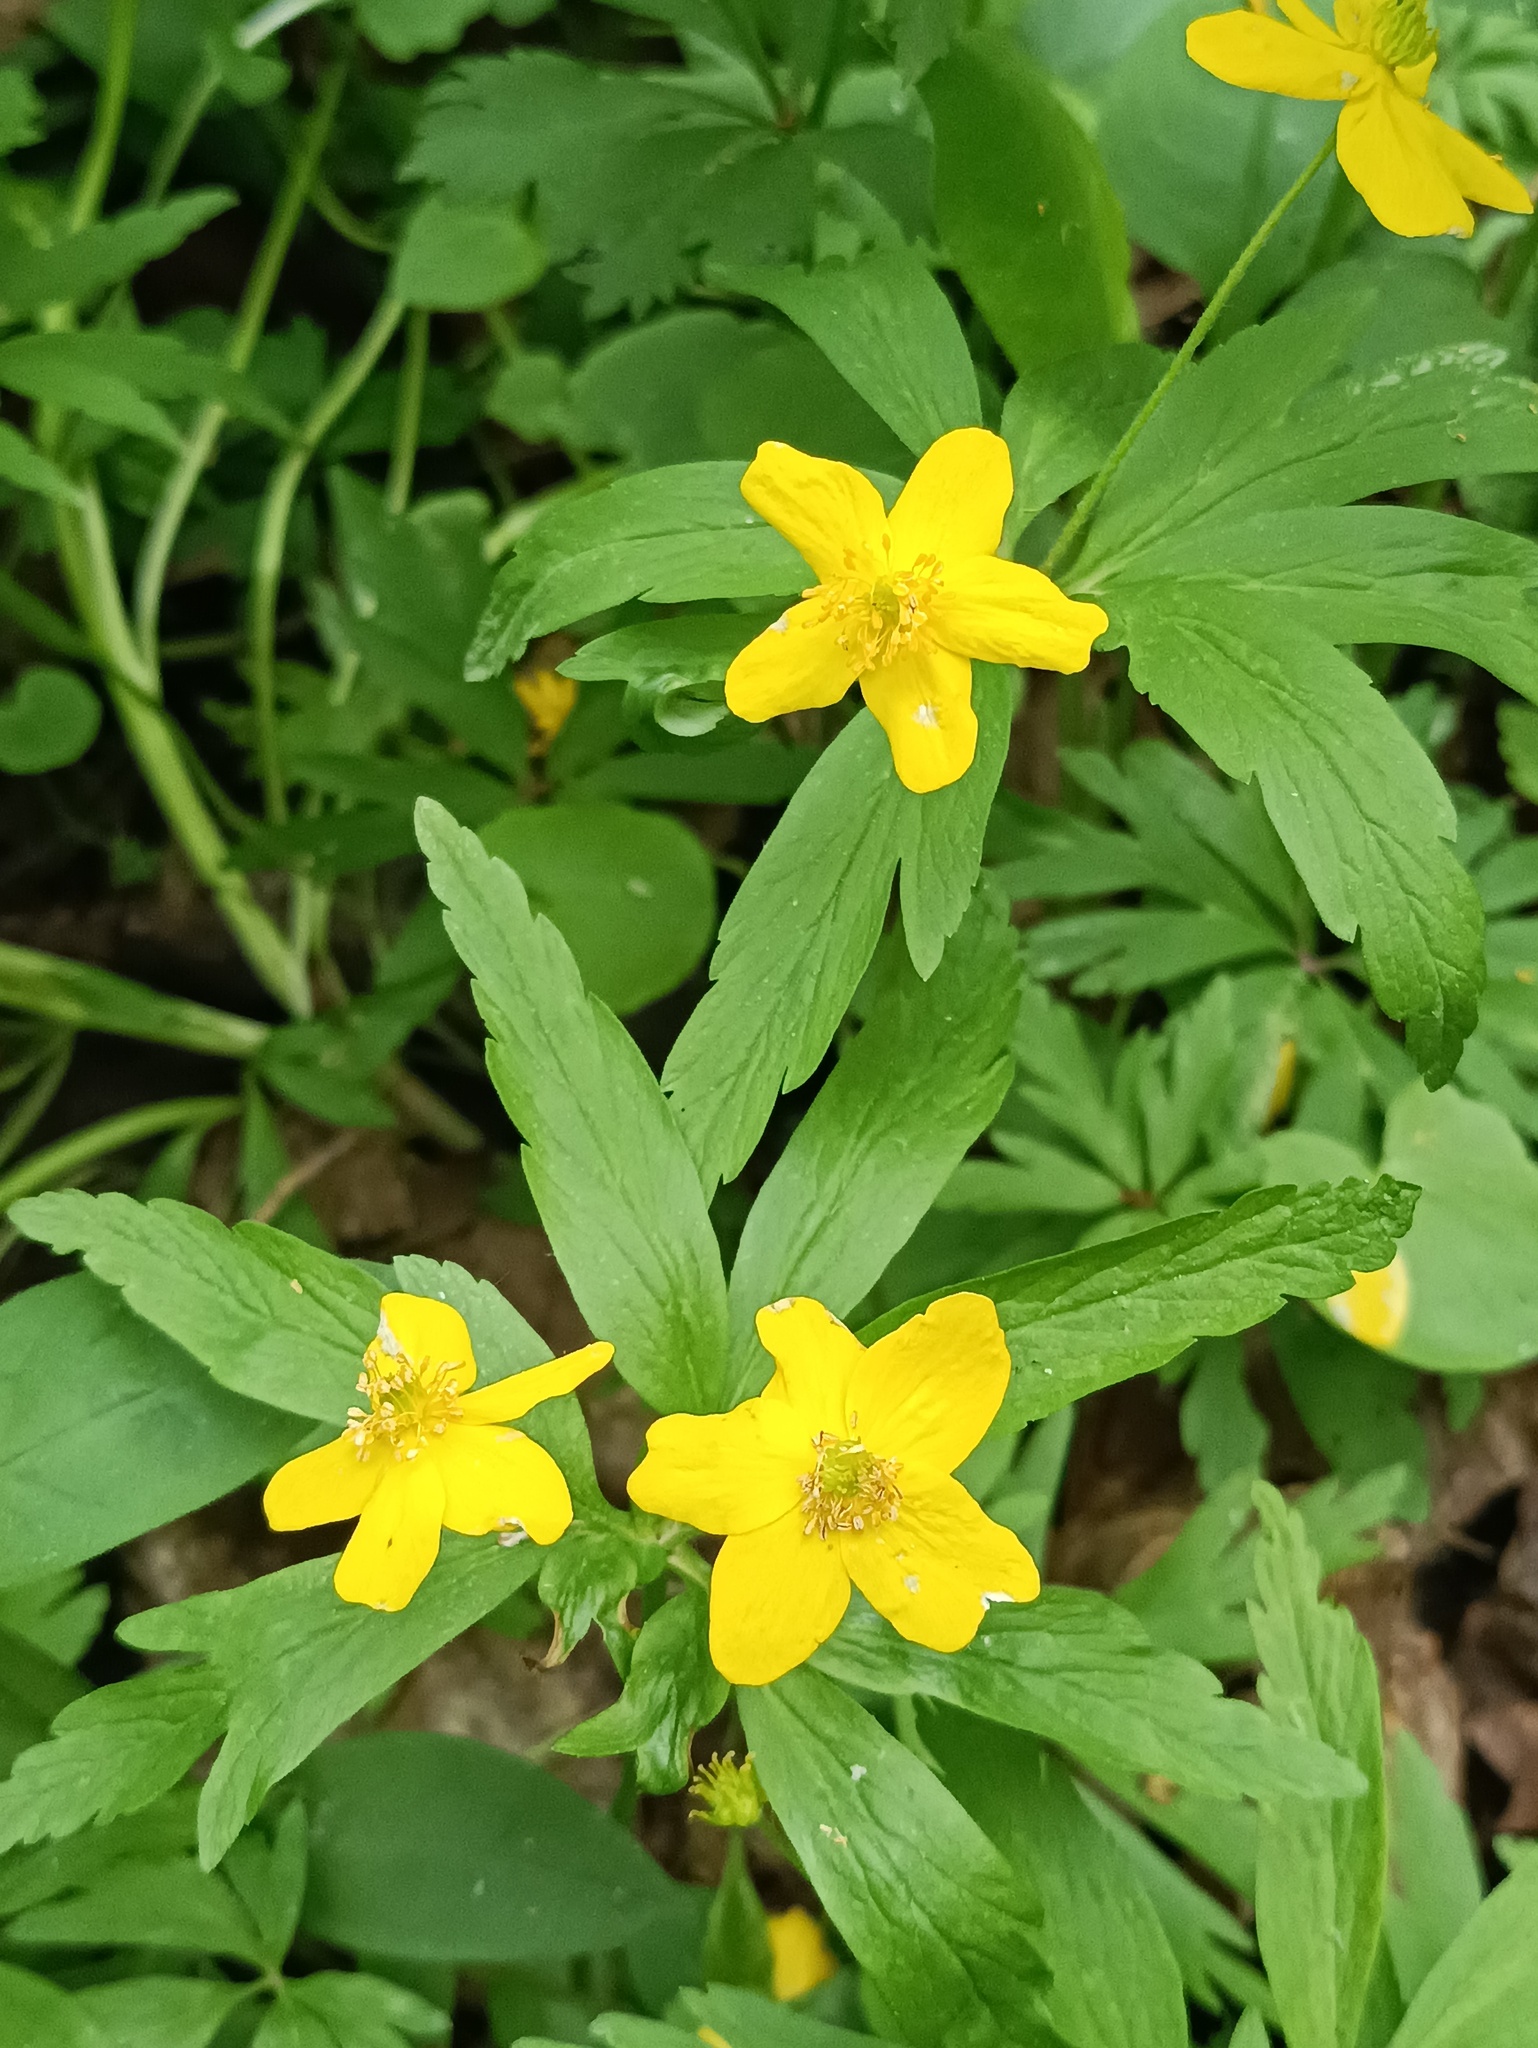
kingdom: Plantae
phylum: Tracheophyta
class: Magnoliopsida
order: Ranunculales
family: Ranunculaceae
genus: Anemone
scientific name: Anemone ranunculoides
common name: Yellow anemone
